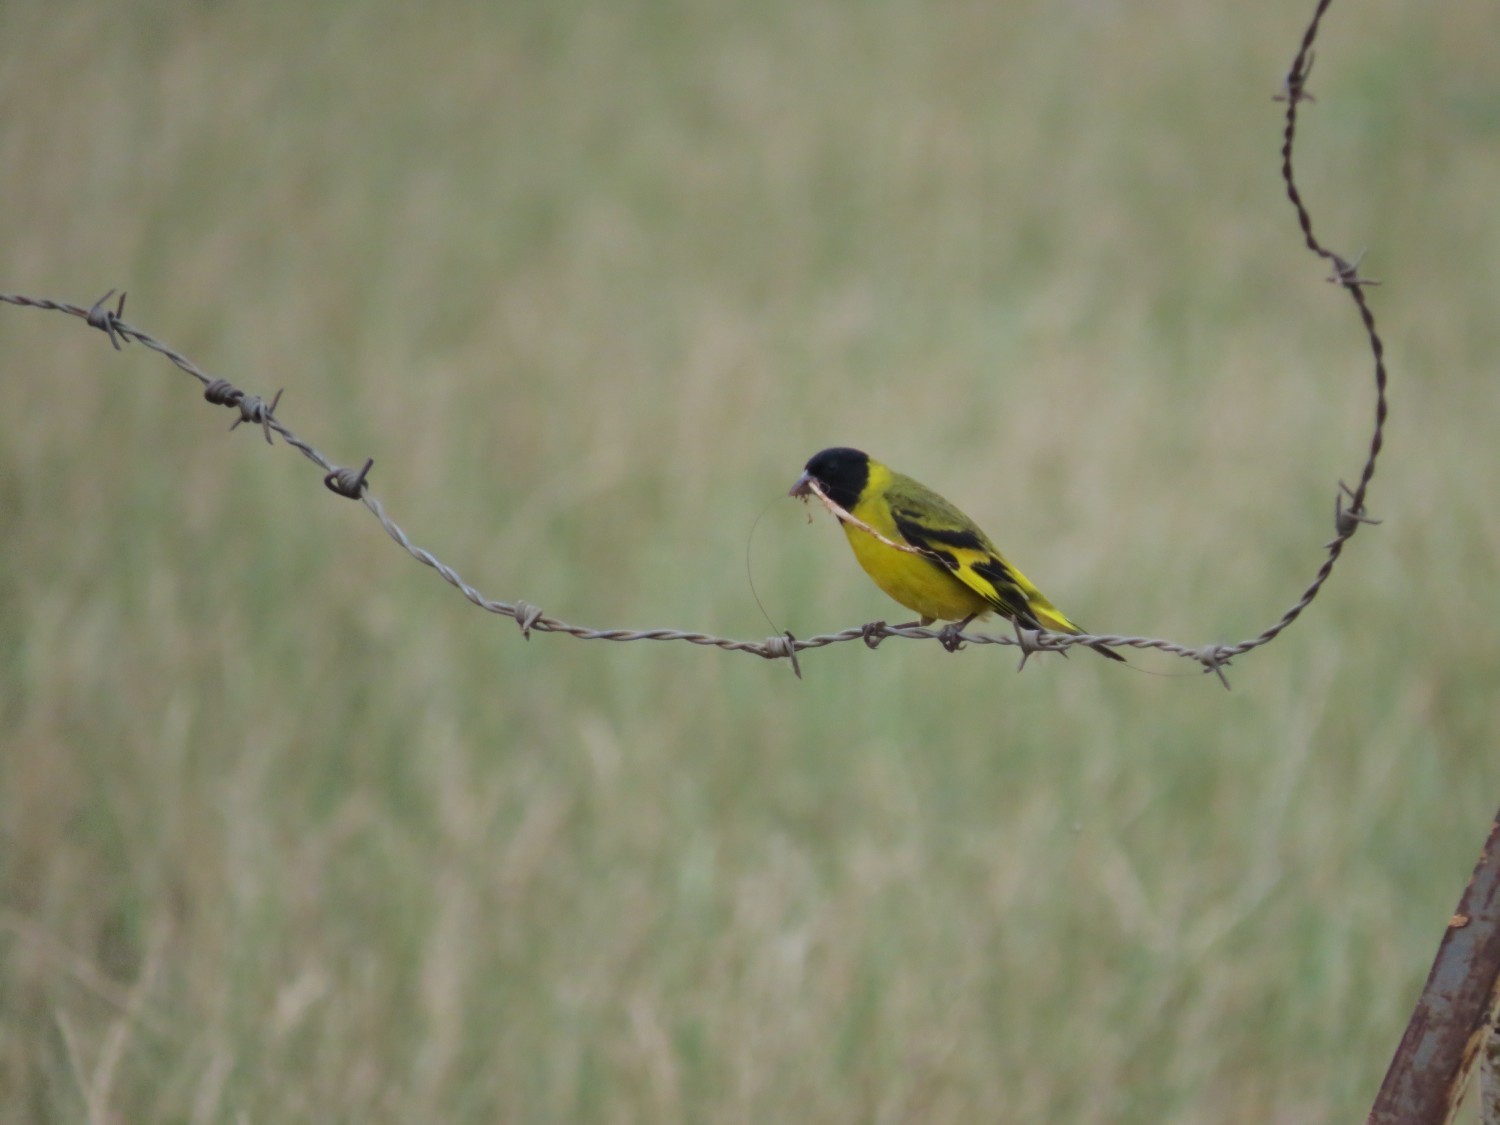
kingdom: Animalia
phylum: Chordata
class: Aves
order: Passeriformes
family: Fringillidae
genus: Spinus
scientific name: Spinus magellanicus
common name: Hooded siskin
